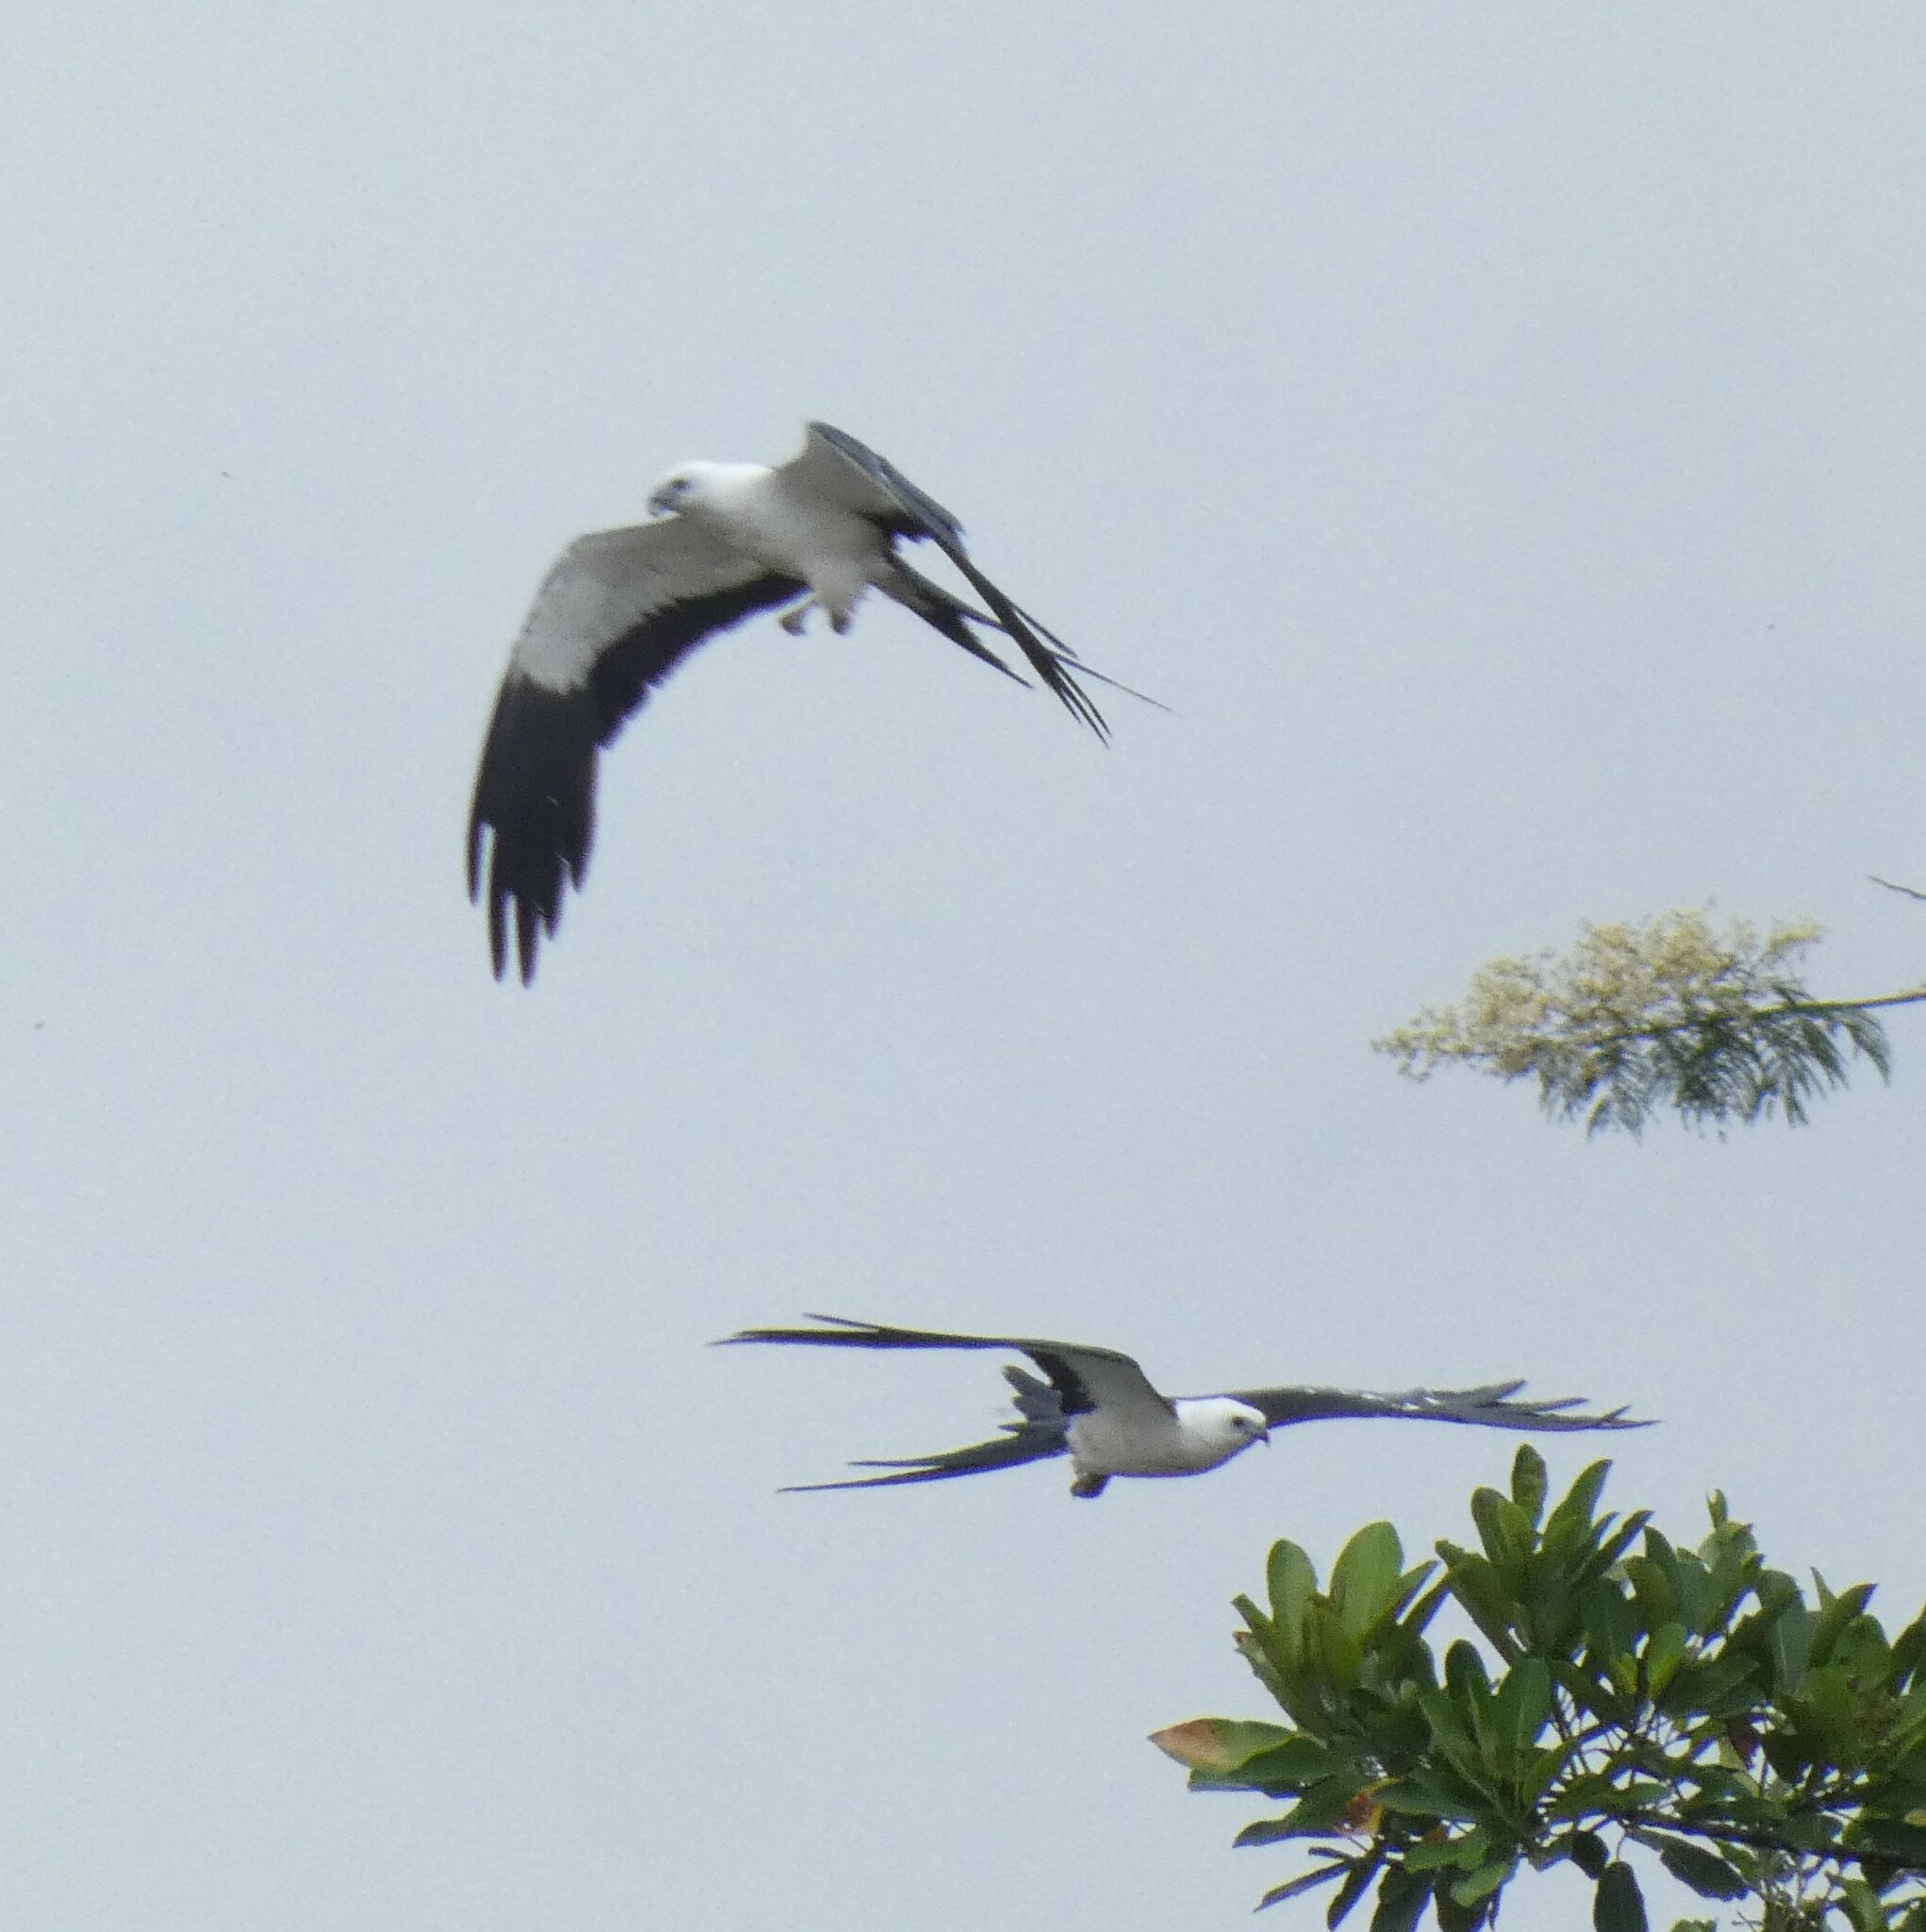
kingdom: Animalia
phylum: Chordata
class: Aves
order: Accipitriformes
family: Accipitridae
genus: Elanoides
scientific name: Elanoides forficatus
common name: Swallow-tailed kite
